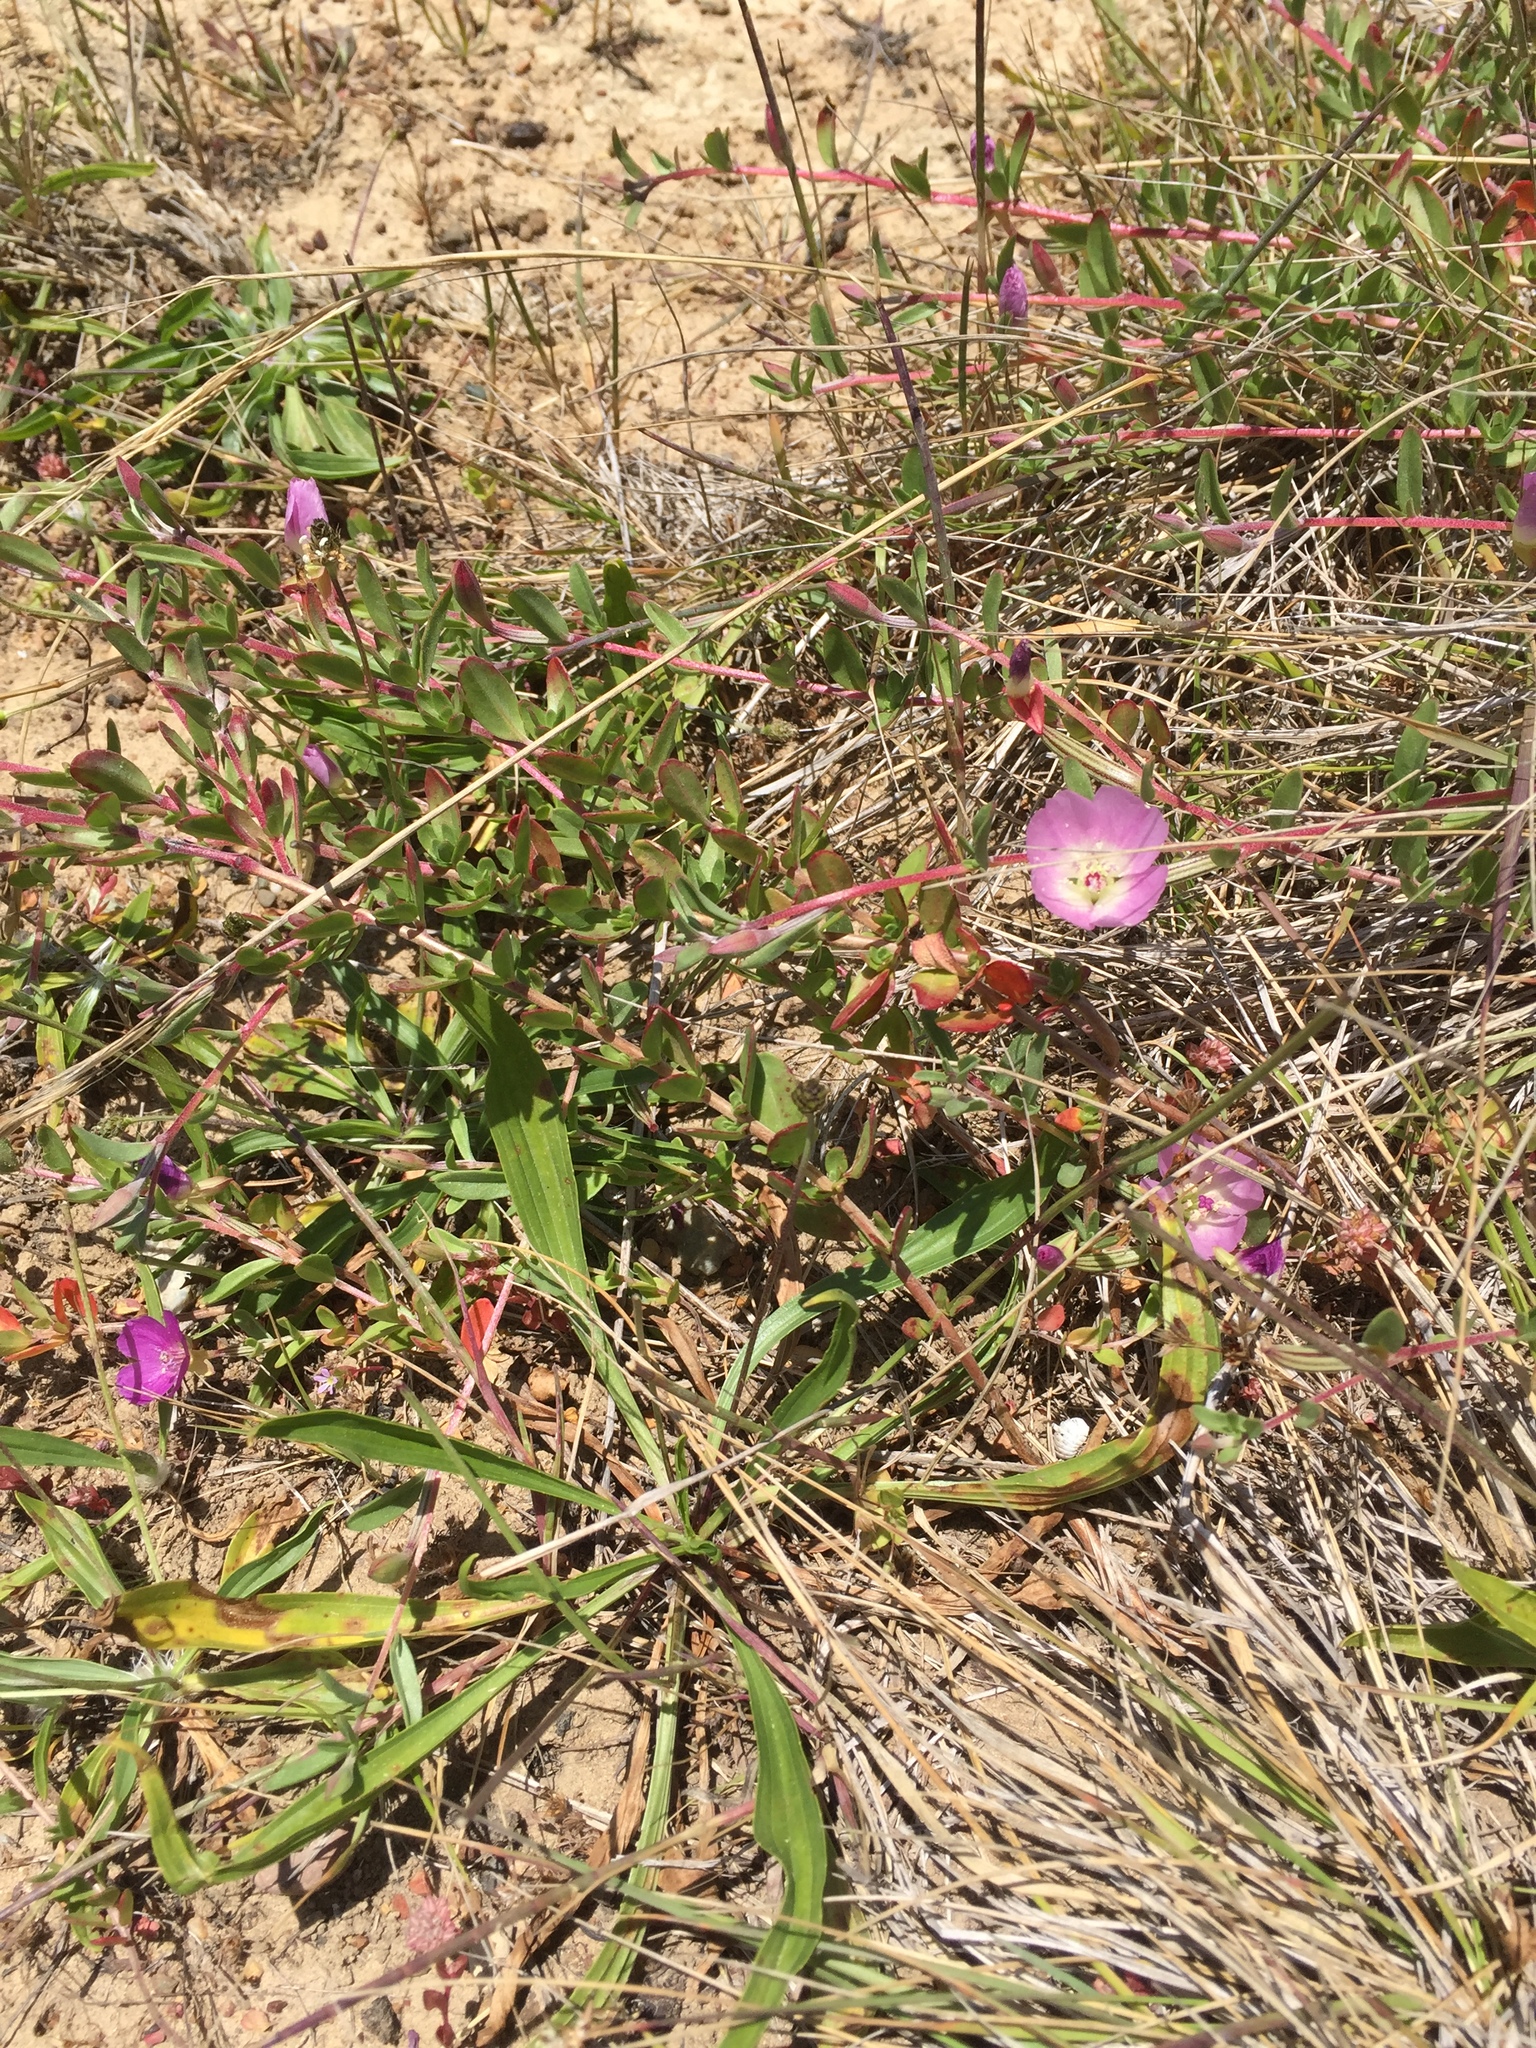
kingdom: Plantae
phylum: Tracheophyta
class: Magnoliopsida
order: Myrtales
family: Onagraceae
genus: Clarkia
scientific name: Clarkia purpurea
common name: Purple clarkia
